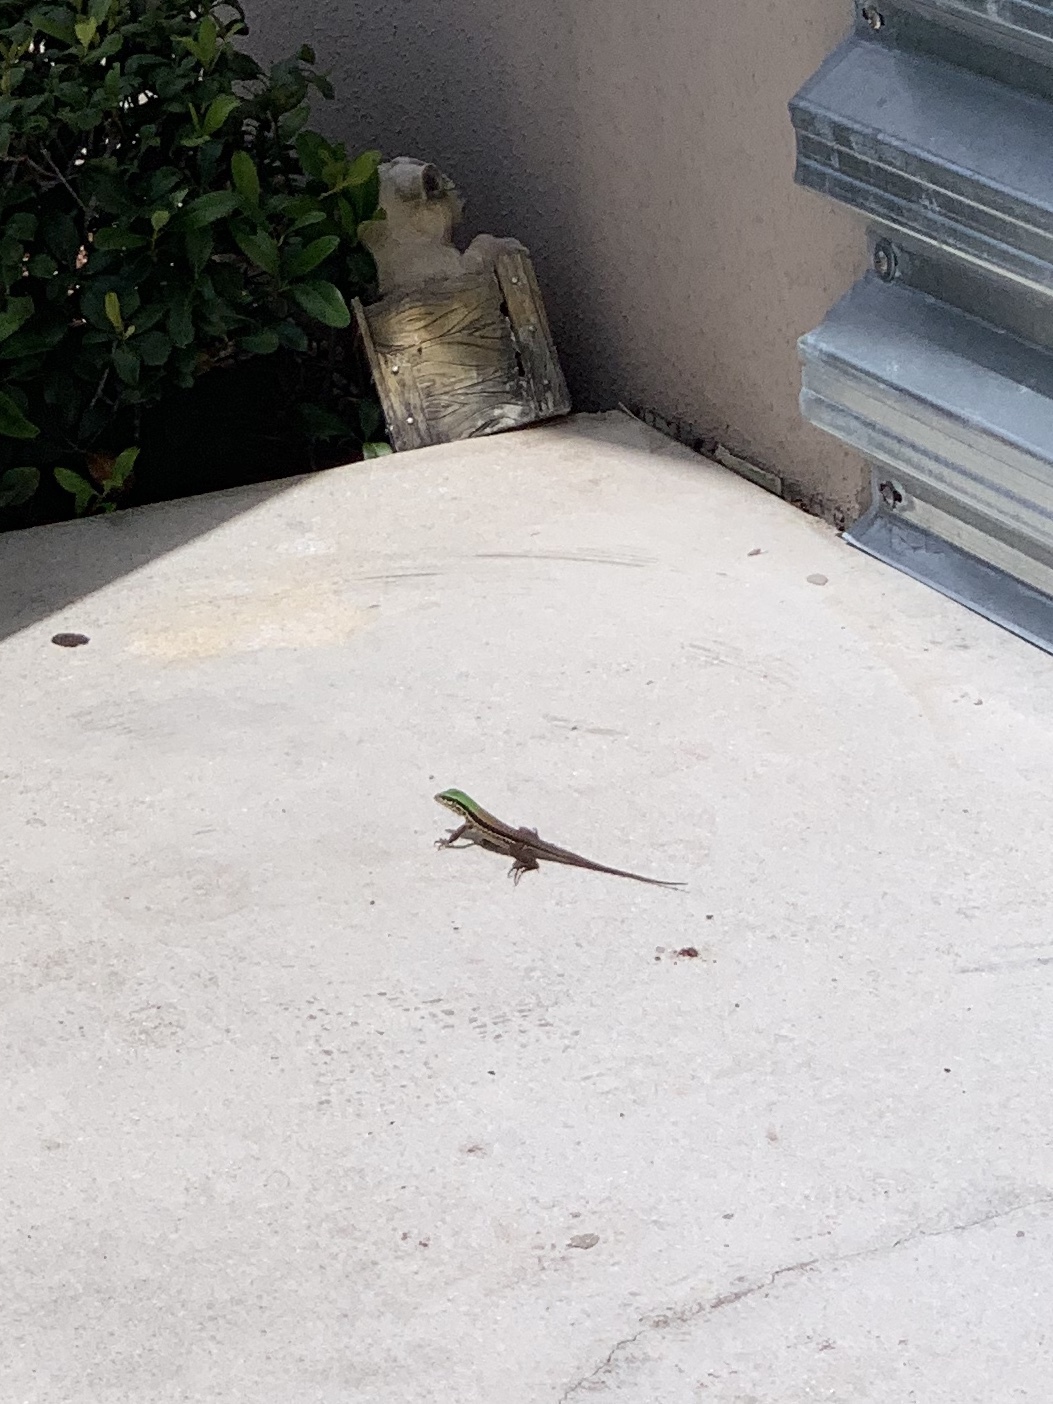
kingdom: Animalia
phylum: Chordata
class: Squamata
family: Teiidae
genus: Ameiva
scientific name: Ameiva ameiva
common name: Giant ameiva
